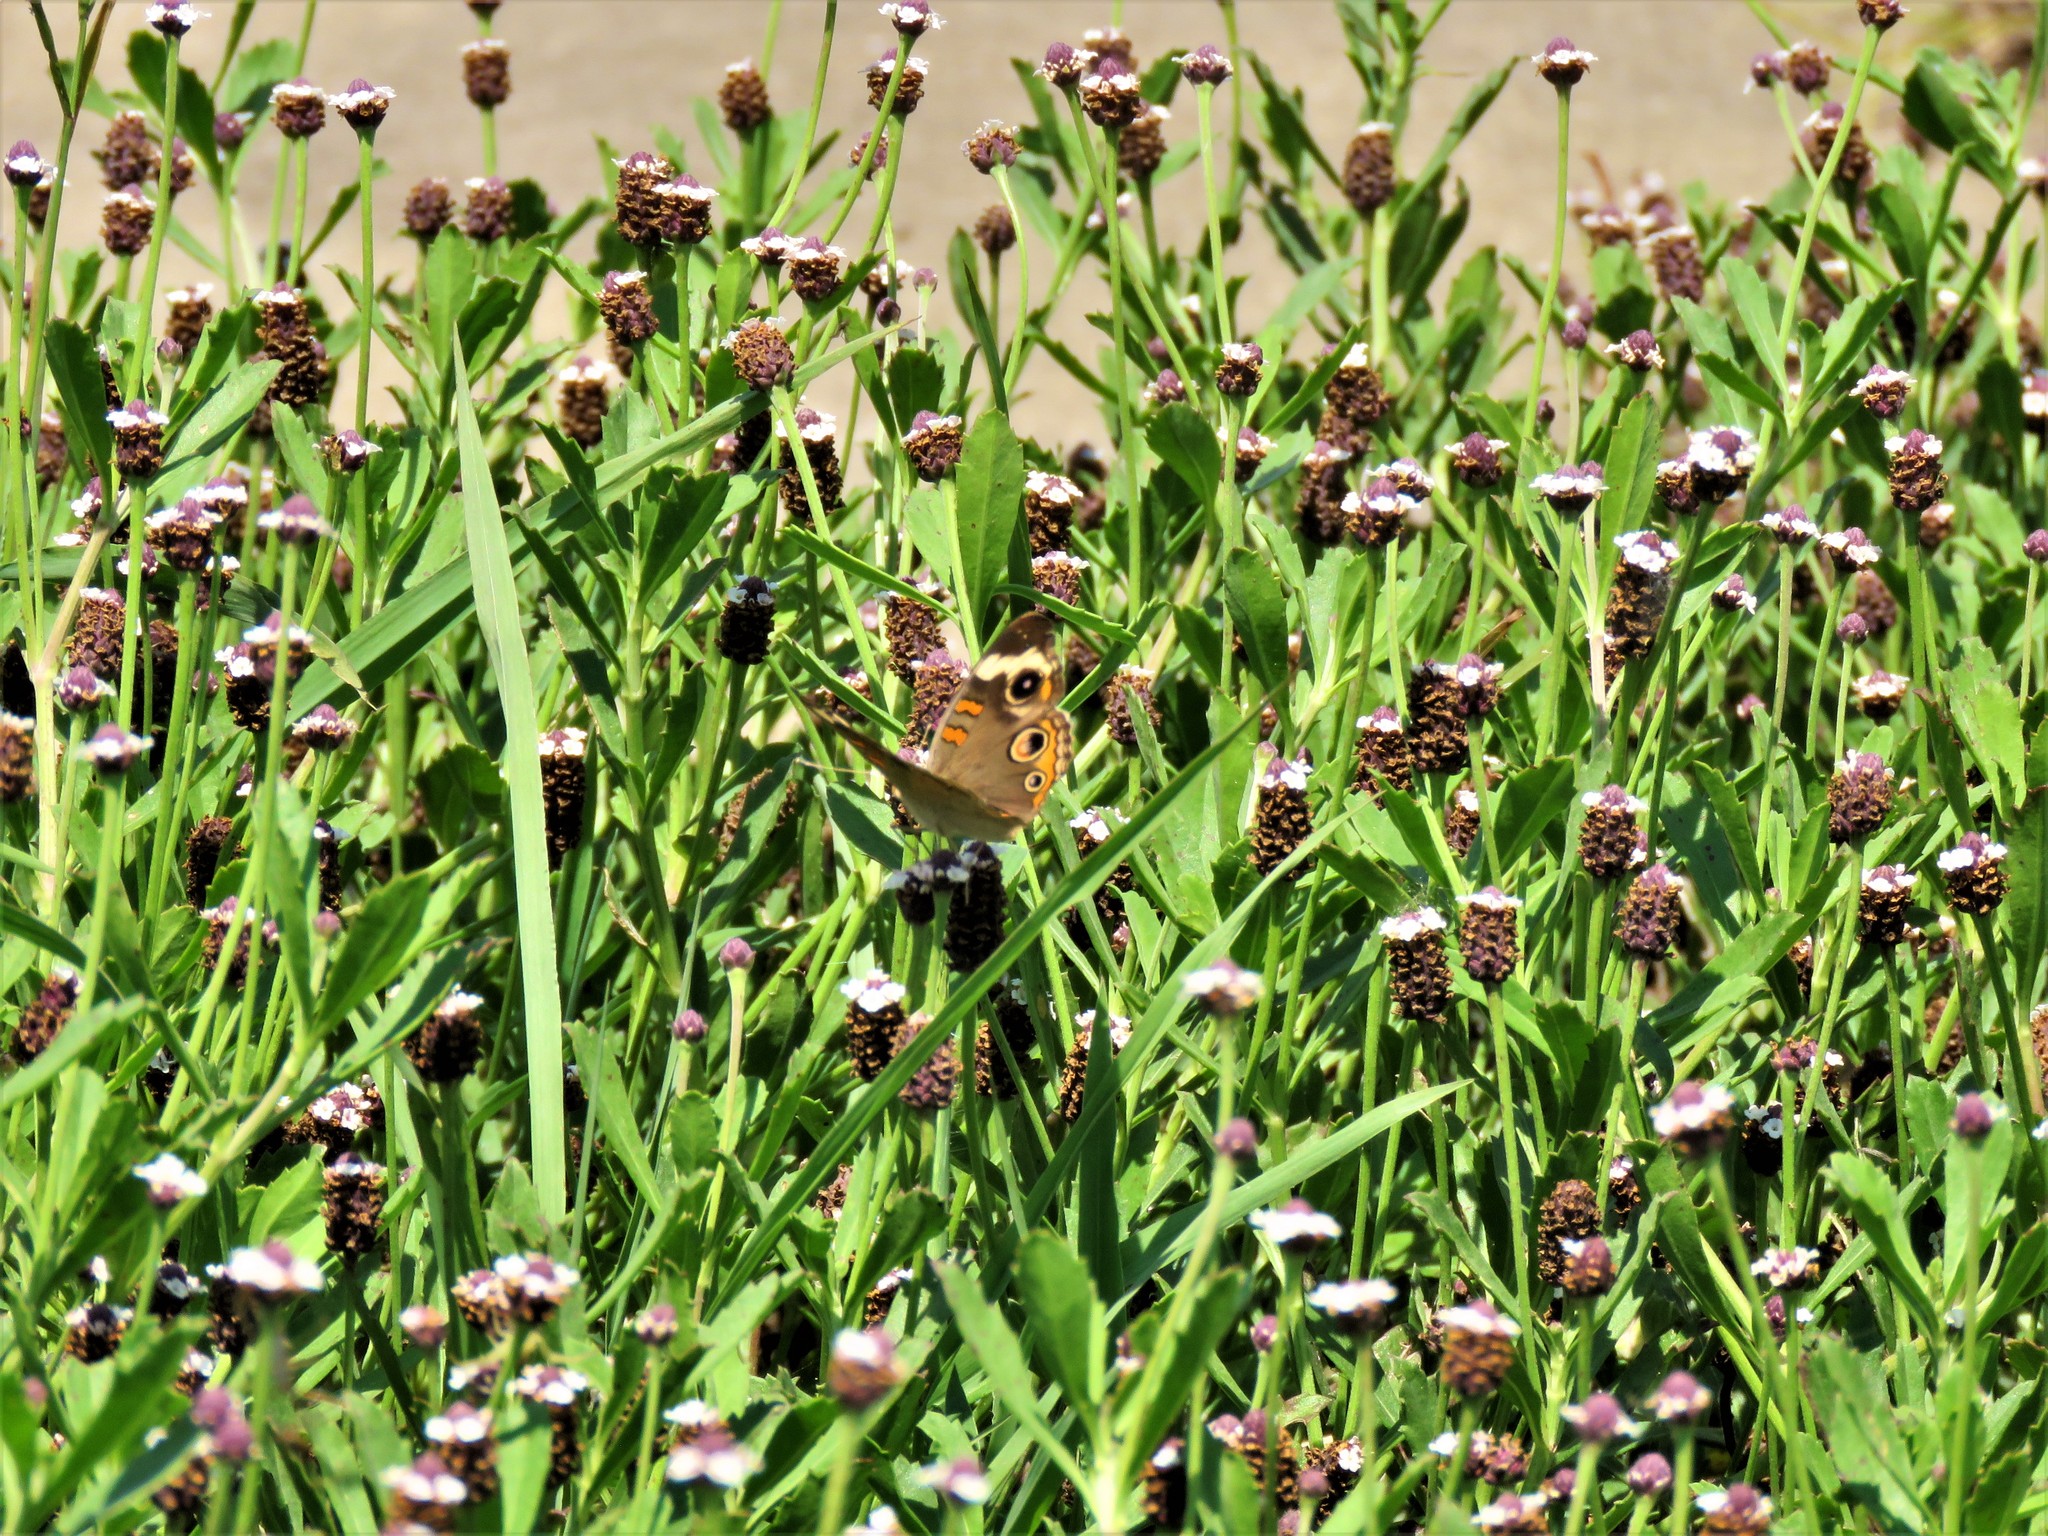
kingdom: Animalia
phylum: Arthropoda
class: Insecta
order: Lepidoptera
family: Nymphalidae
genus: Junonia
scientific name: Junonia coenia
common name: Common buckeye
